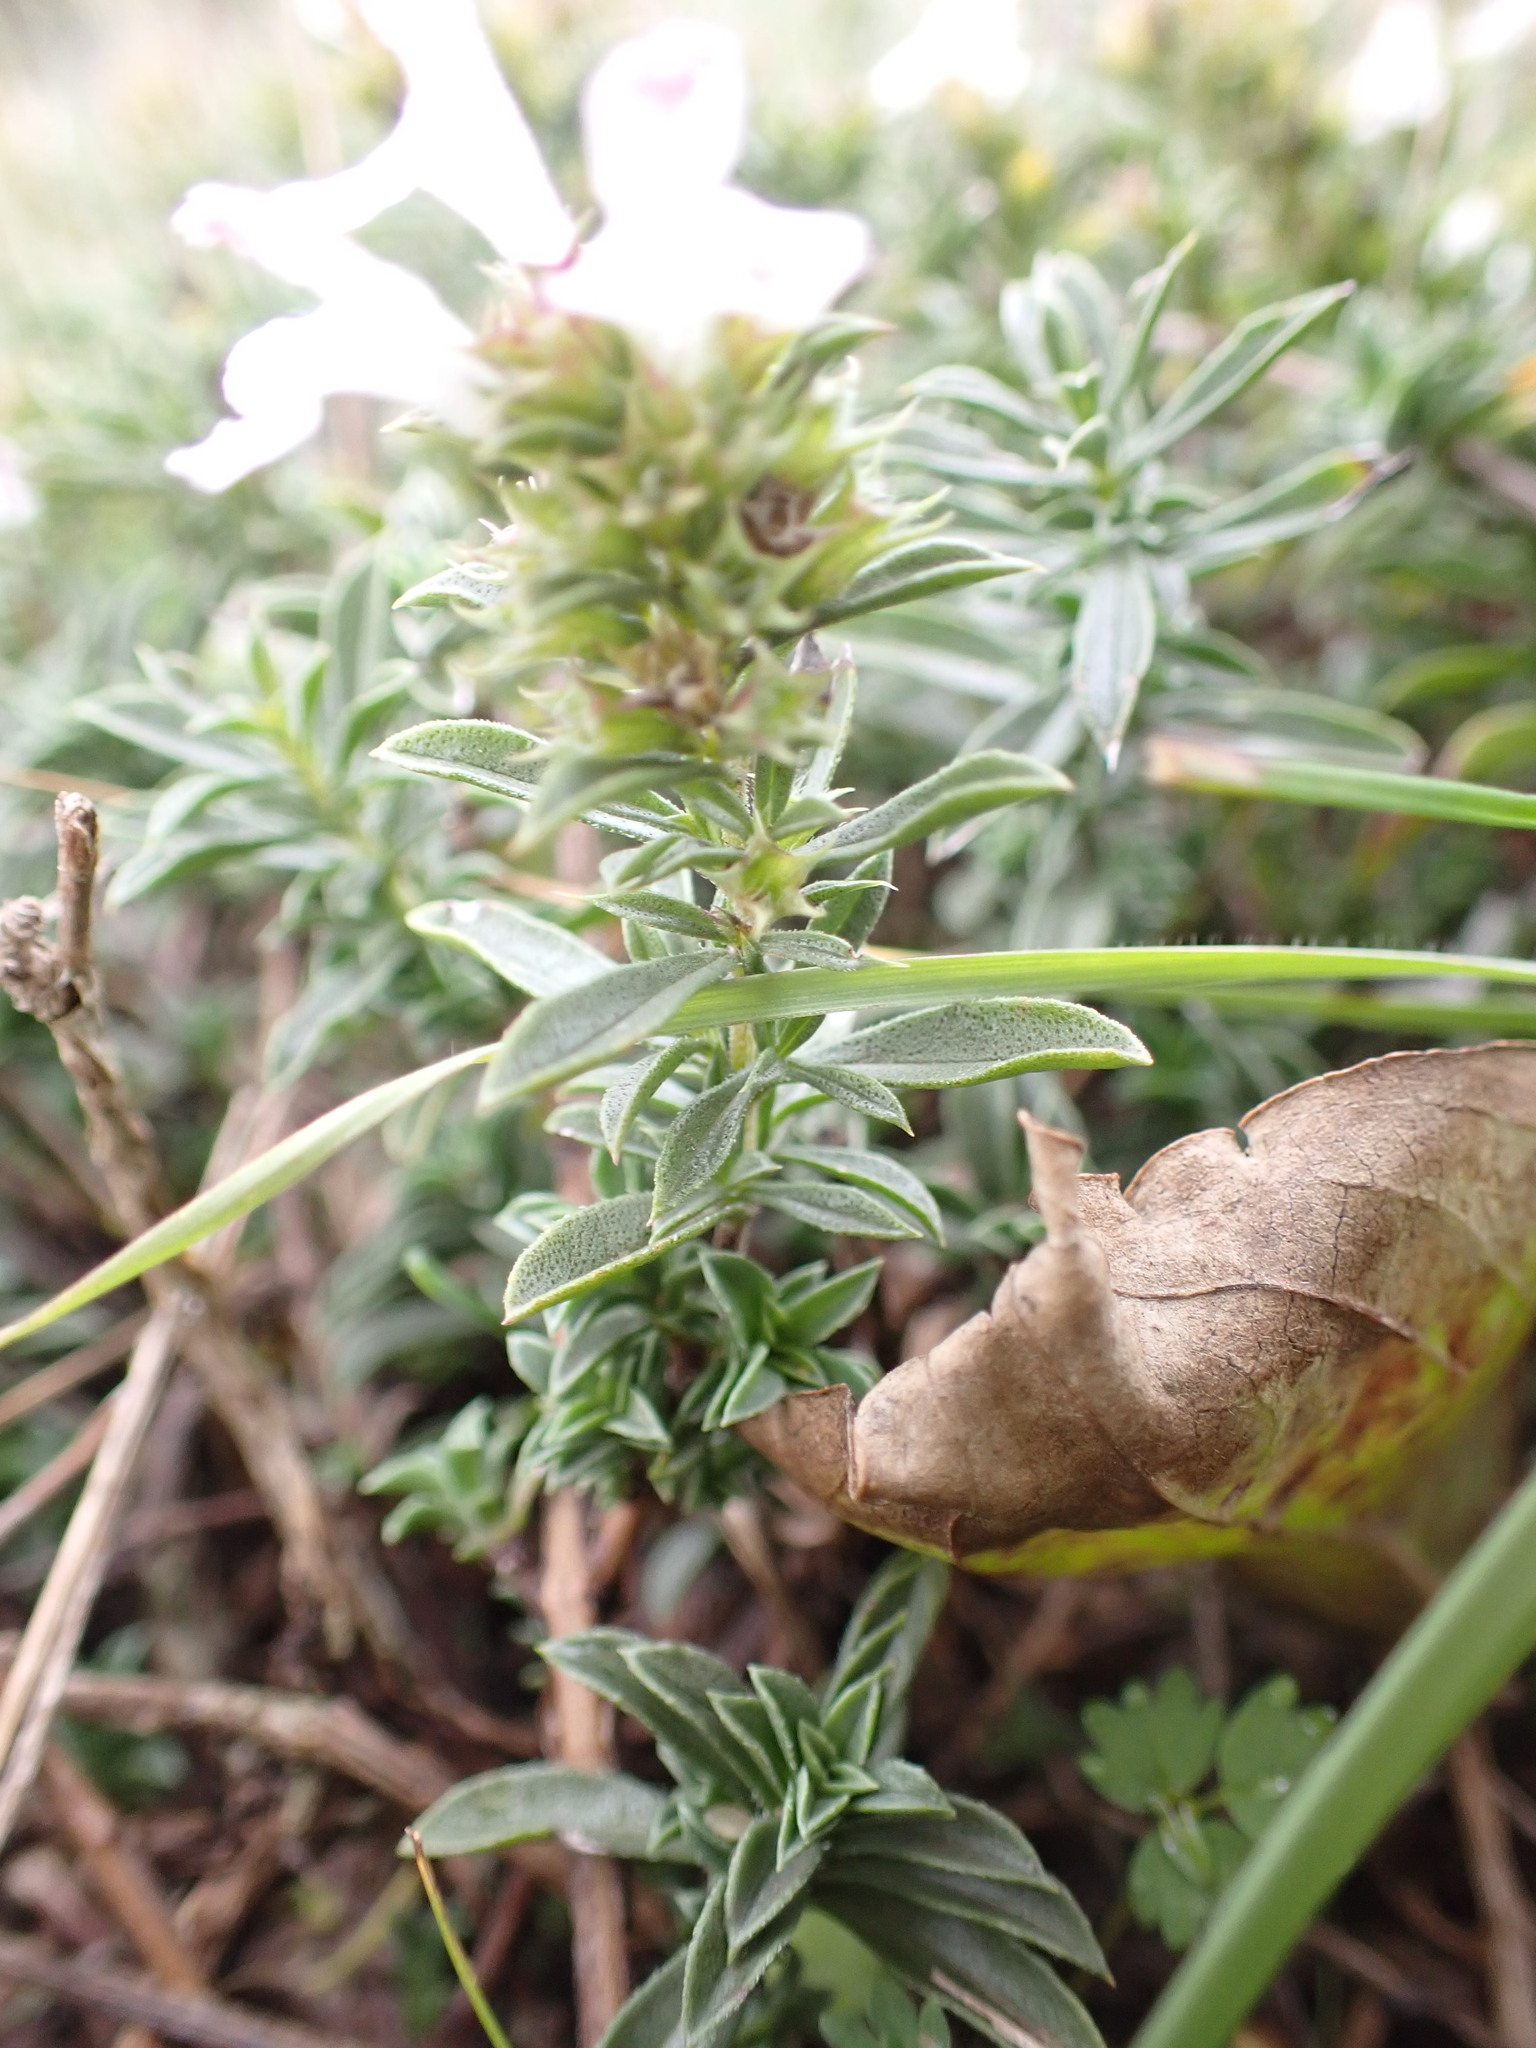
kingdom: Plantae
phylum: Tracheophyta
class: Magnoliopsida
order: Lamiales
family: Lamiaceae
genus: Satureja
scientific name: Satureja montana
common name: Winter savory
